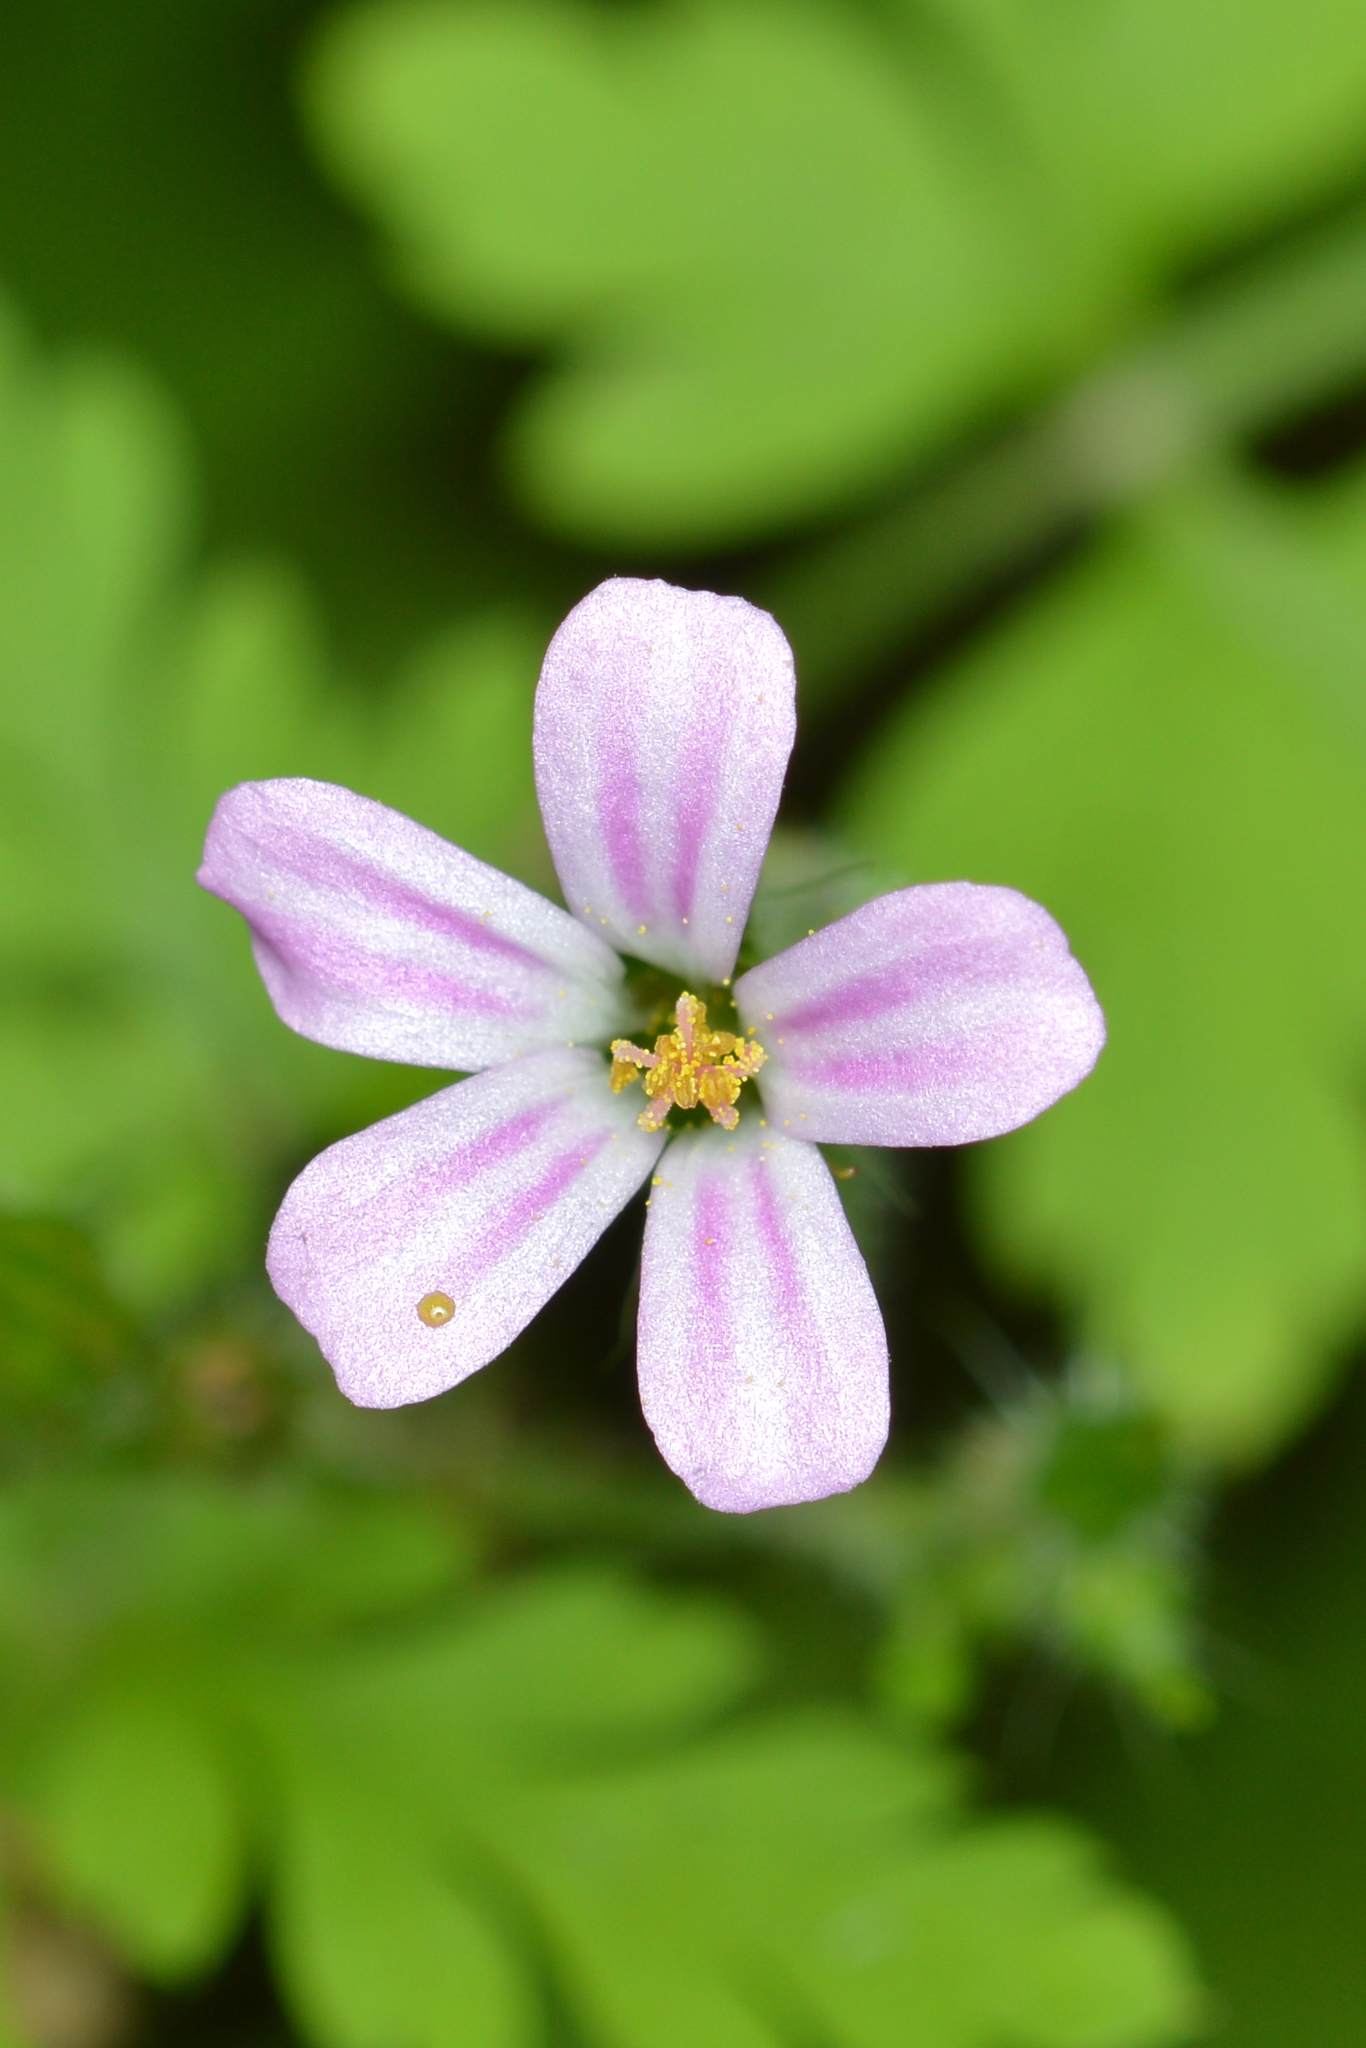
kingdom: Plantae
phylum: Tracheophyta
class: Magnoliopsida
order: Geraniales
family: Geraniaceae
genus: Geranium
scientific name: Geranium robertianum
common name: Herb-robert
